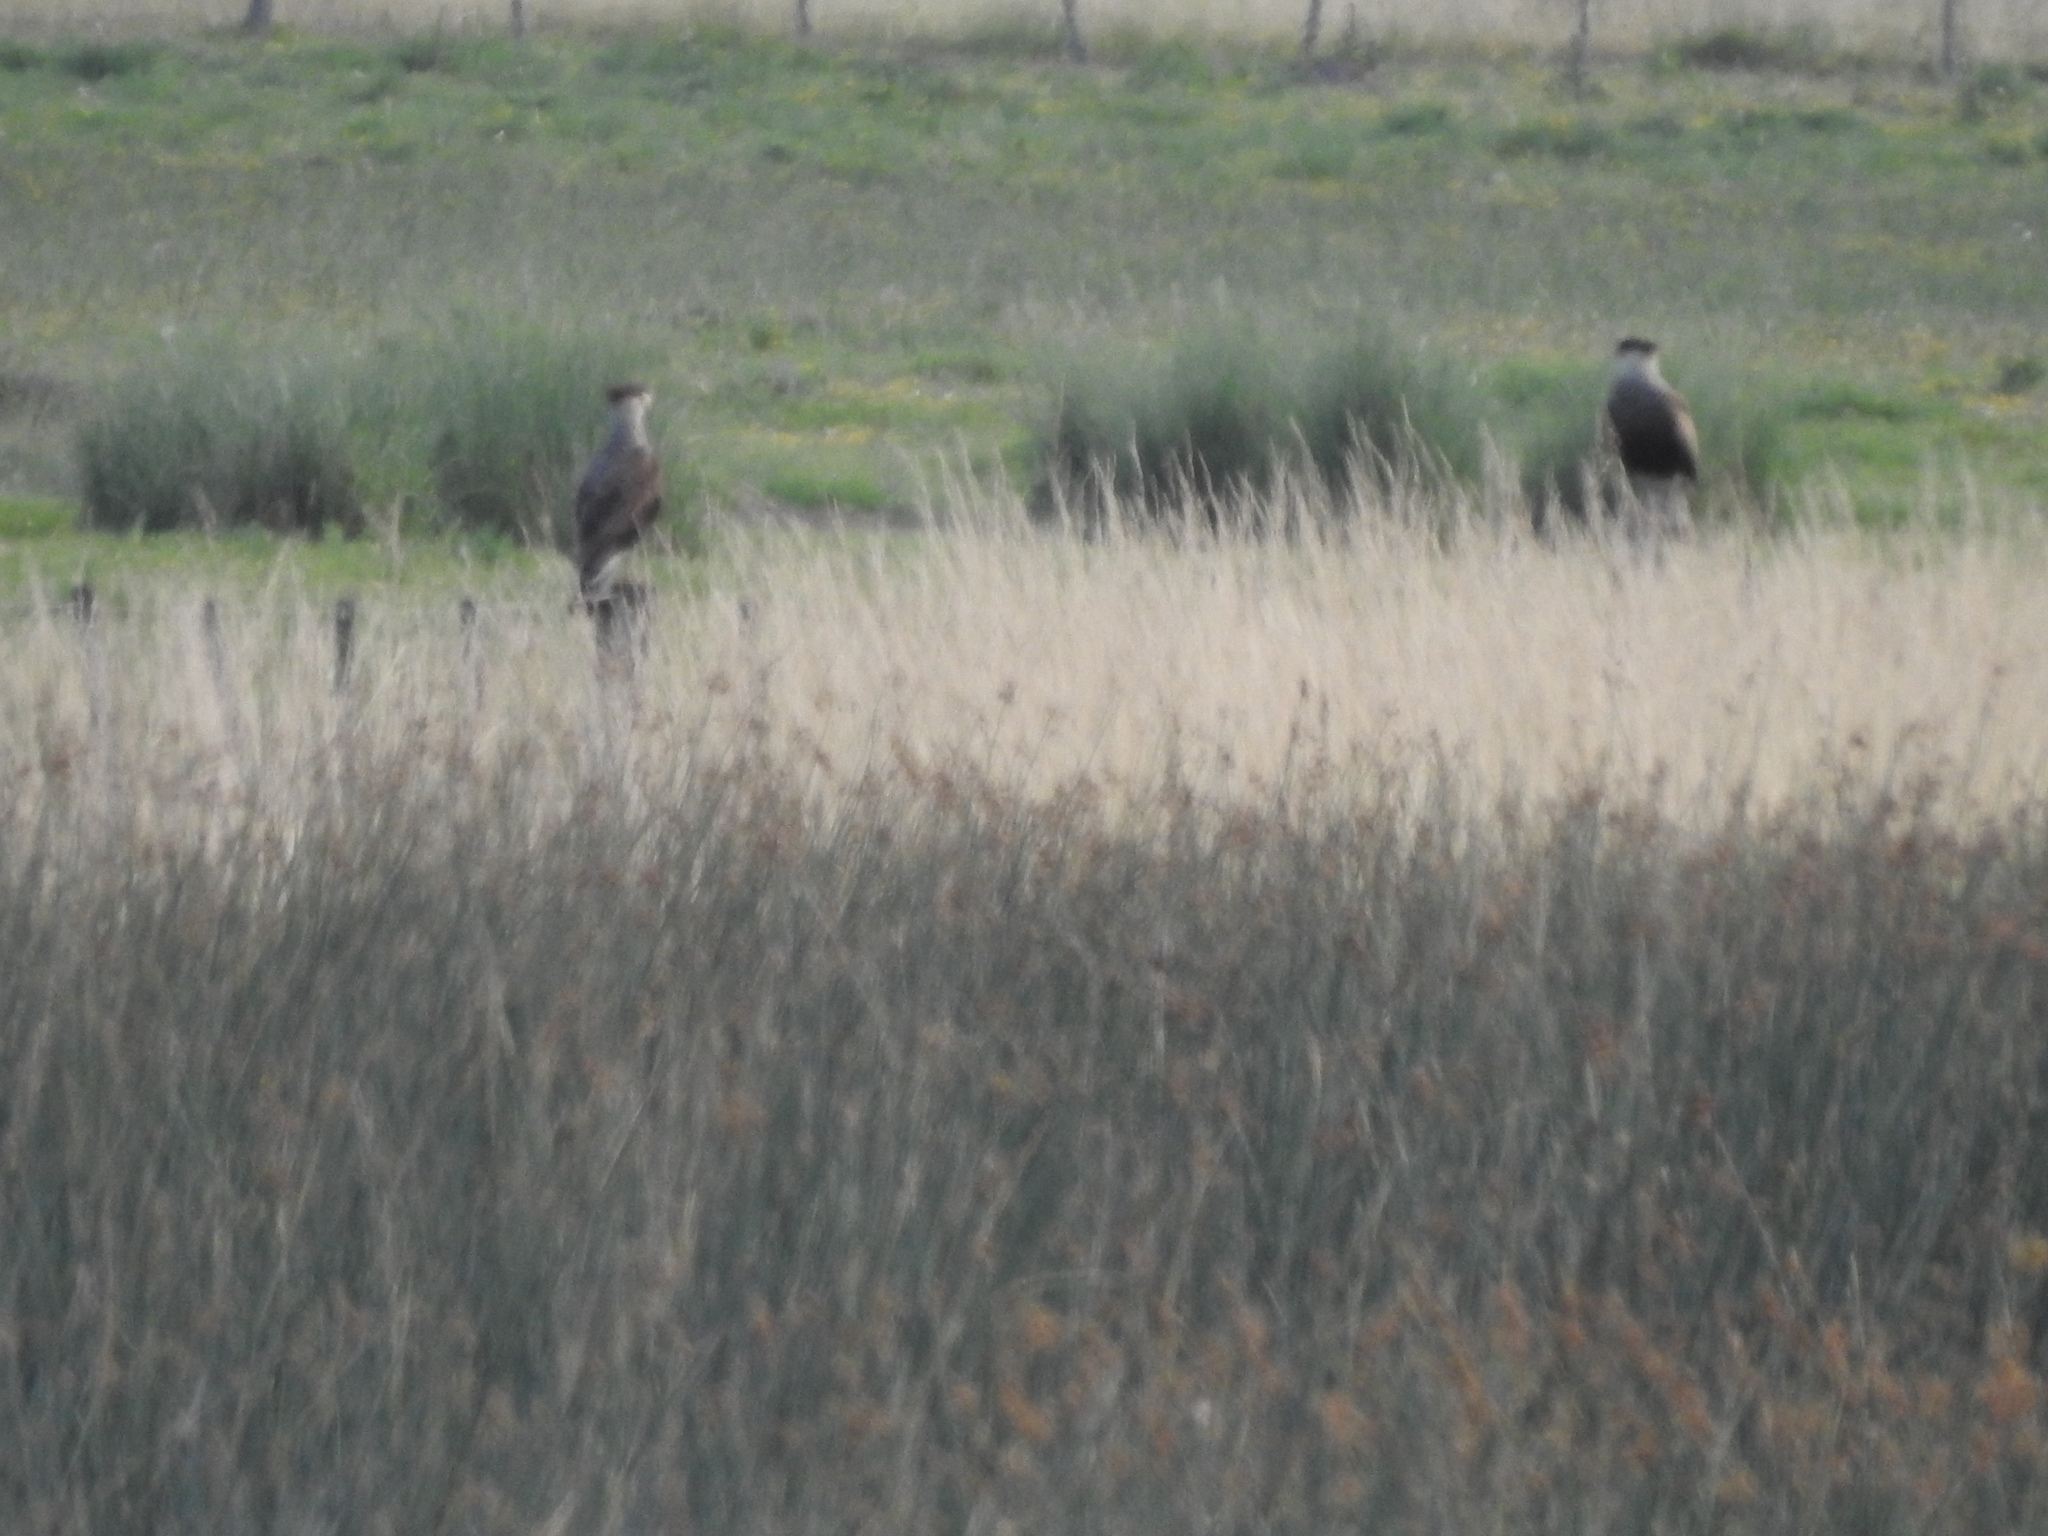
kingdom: Animalia
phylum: Chordata
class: Aves
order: Falconiformes
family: Falconidae
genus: Caracara
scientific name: Caracara plancus
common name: Southern caracara
